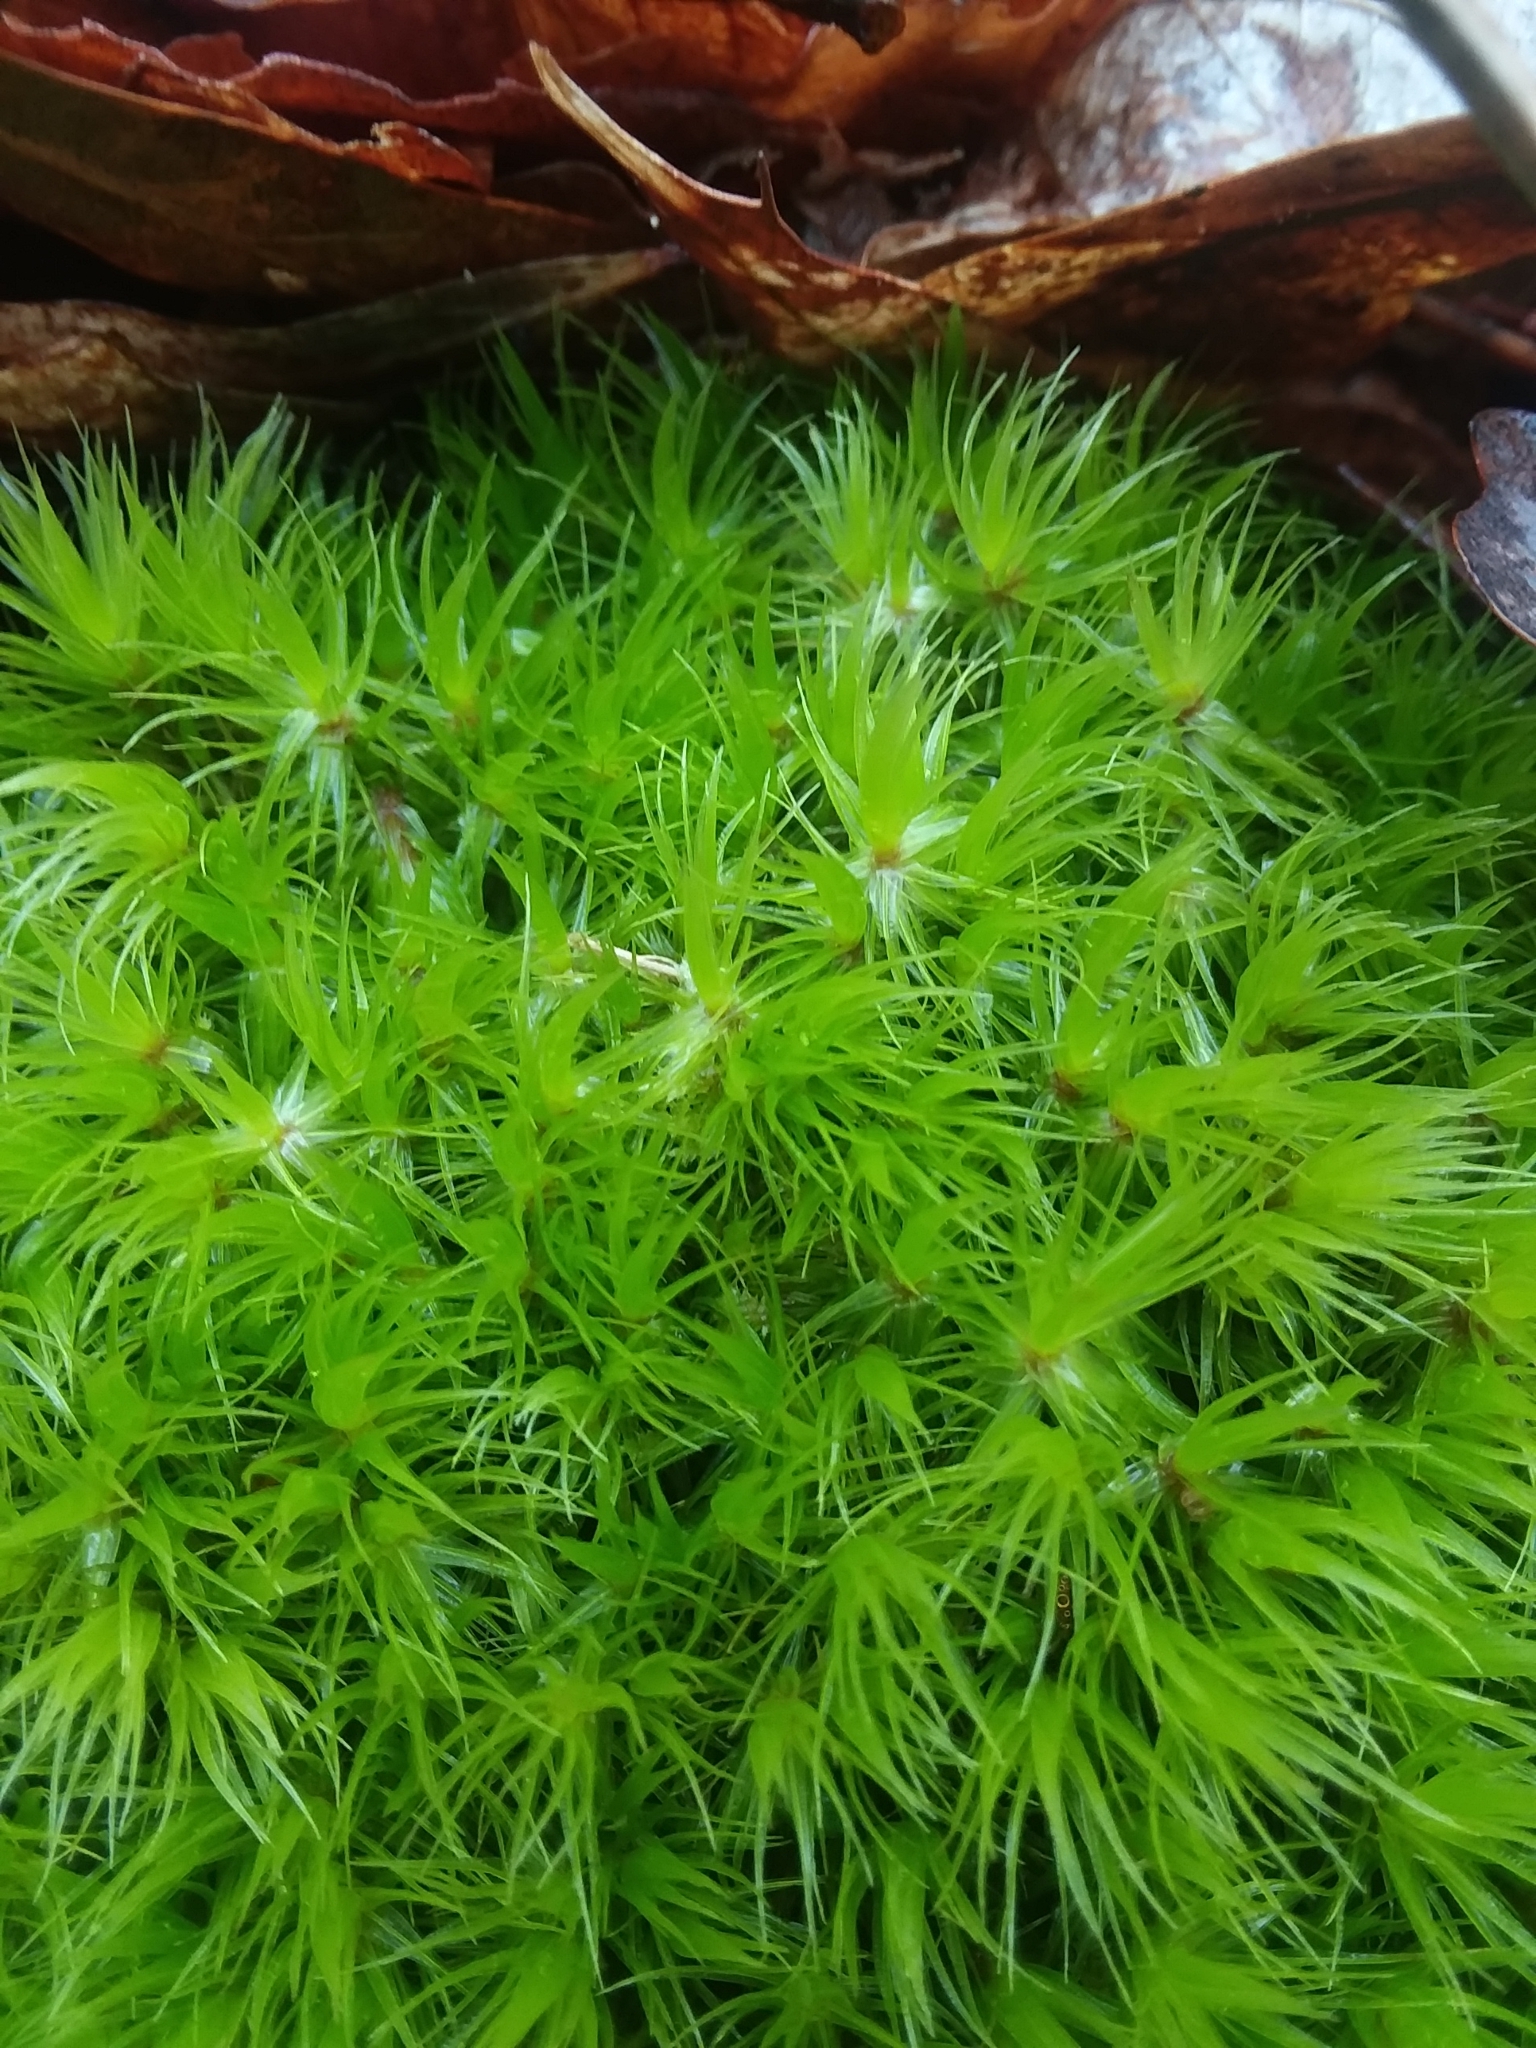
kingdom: Plantae
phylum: Bryophyta
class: Bryopsida
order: Dicranales
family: Dicranaceae
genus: Dicranum
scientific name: Dicranum condensatum
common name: Condensed broom moss
